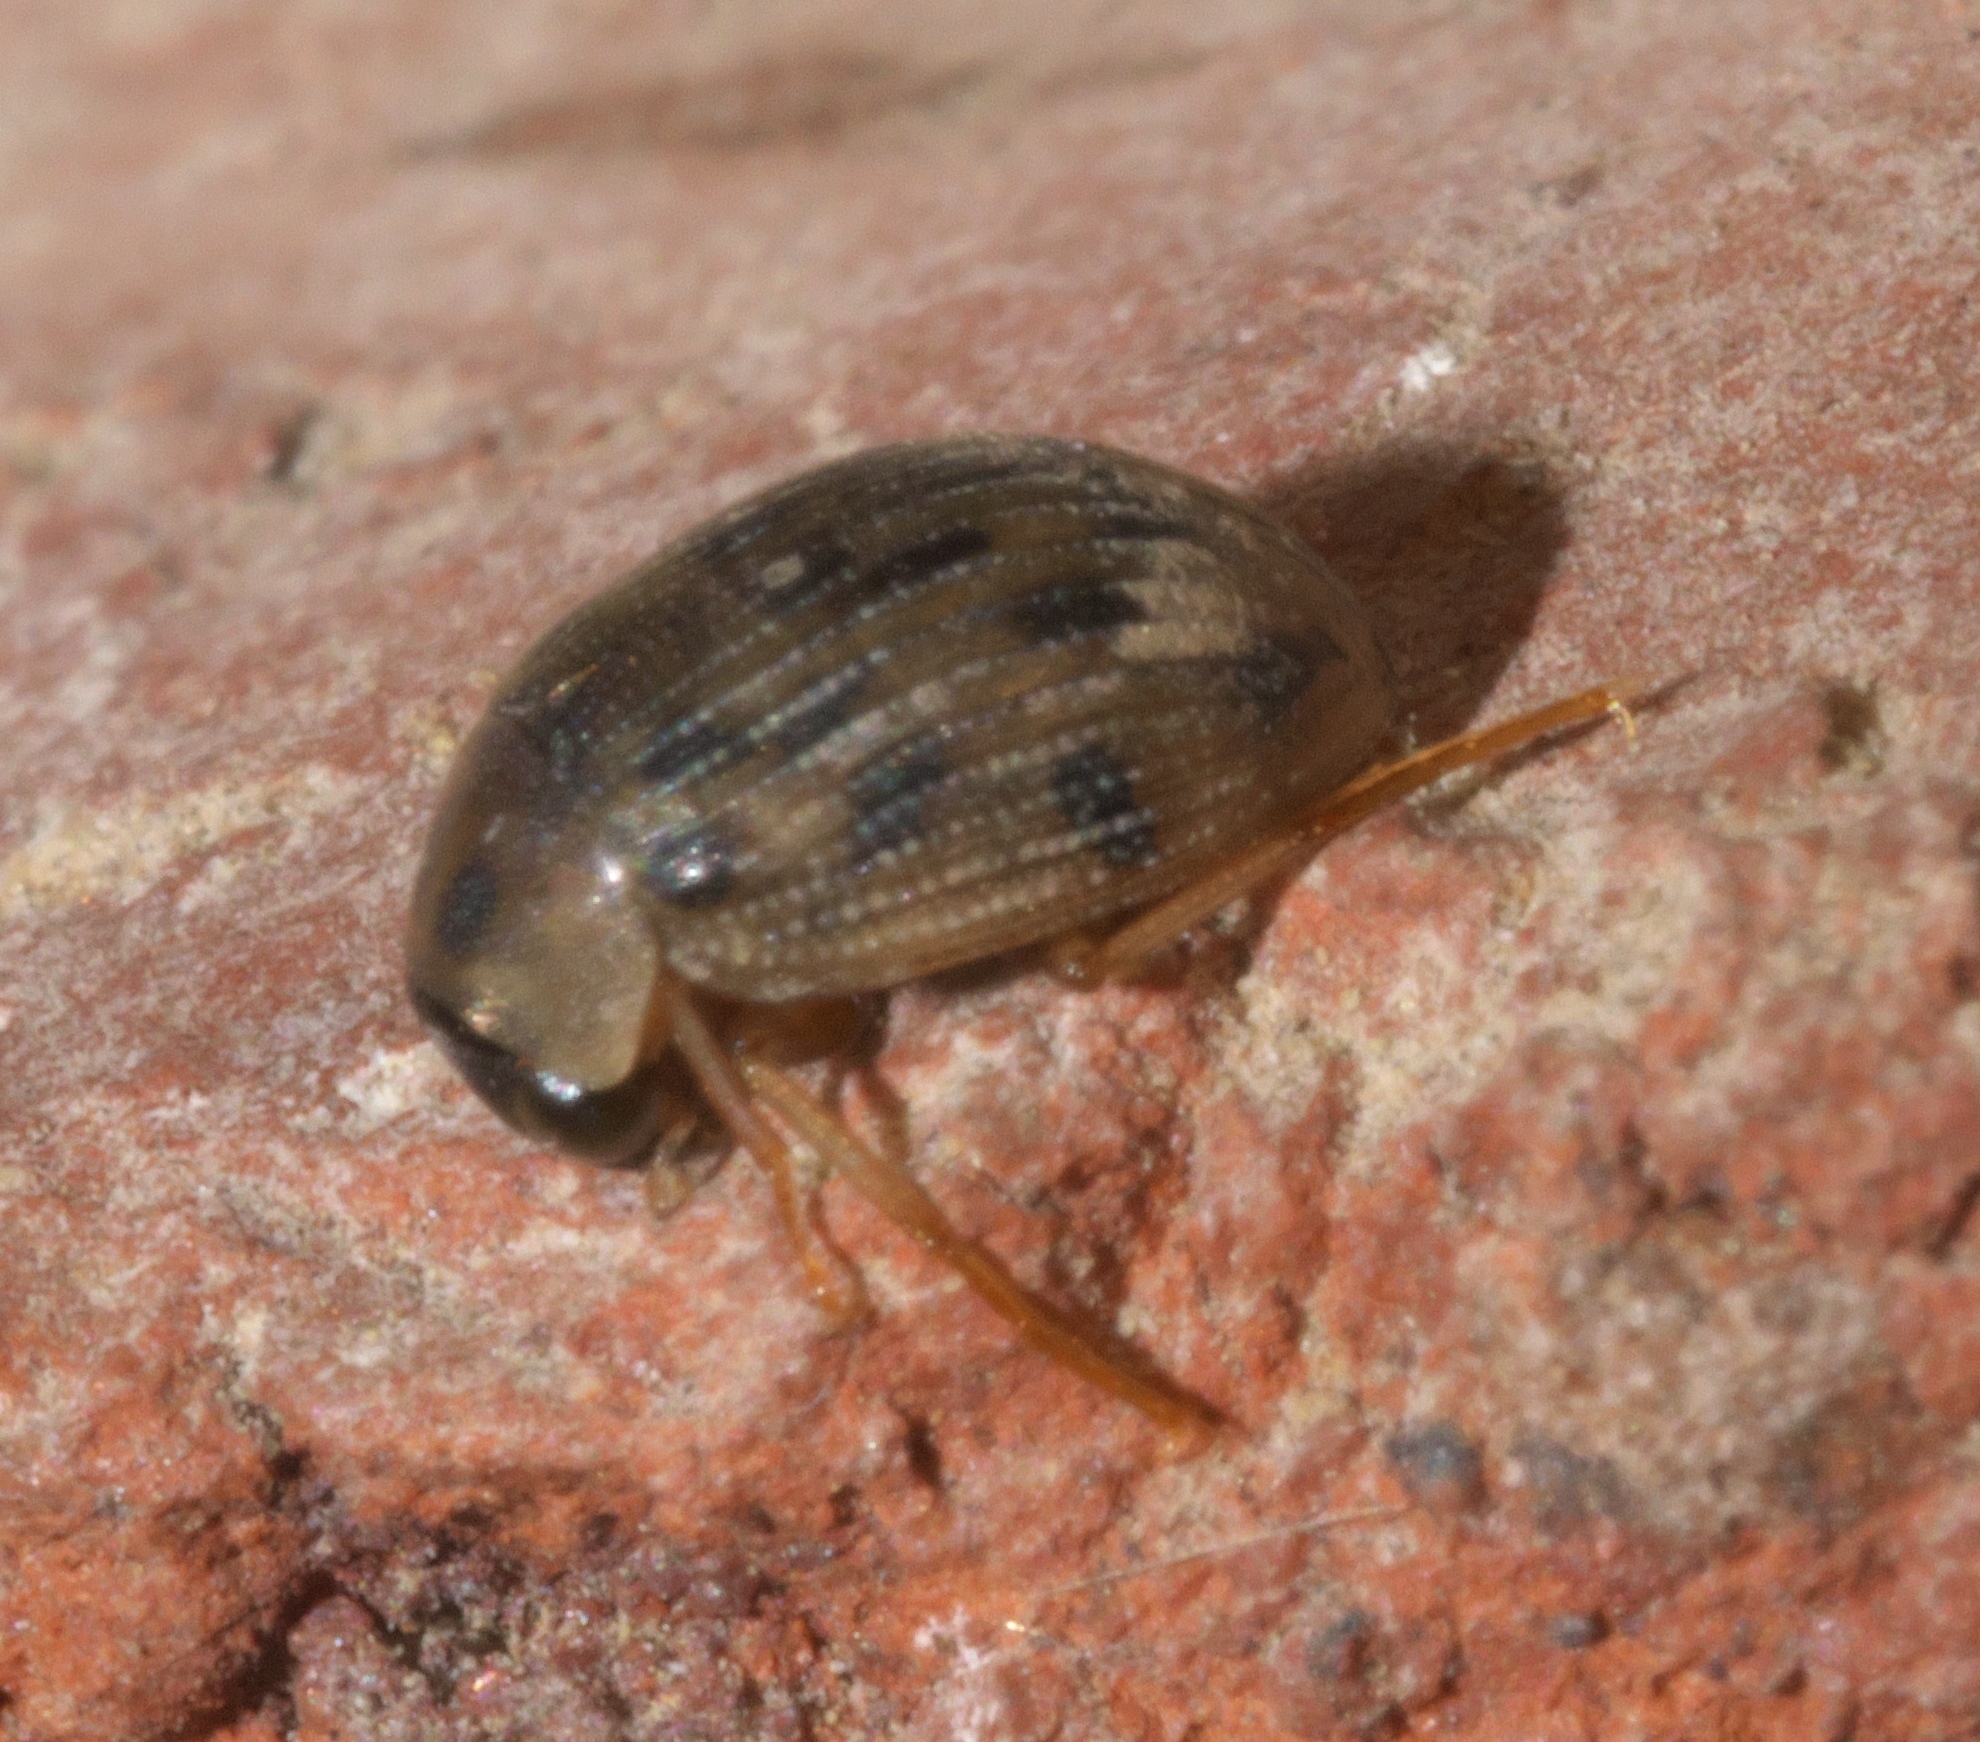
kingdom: Animalia
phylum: Arthropoda
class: Insecta
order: Coleoptera
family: Hydrophilidae
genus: Berosus
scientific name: Berosus pantherinus
